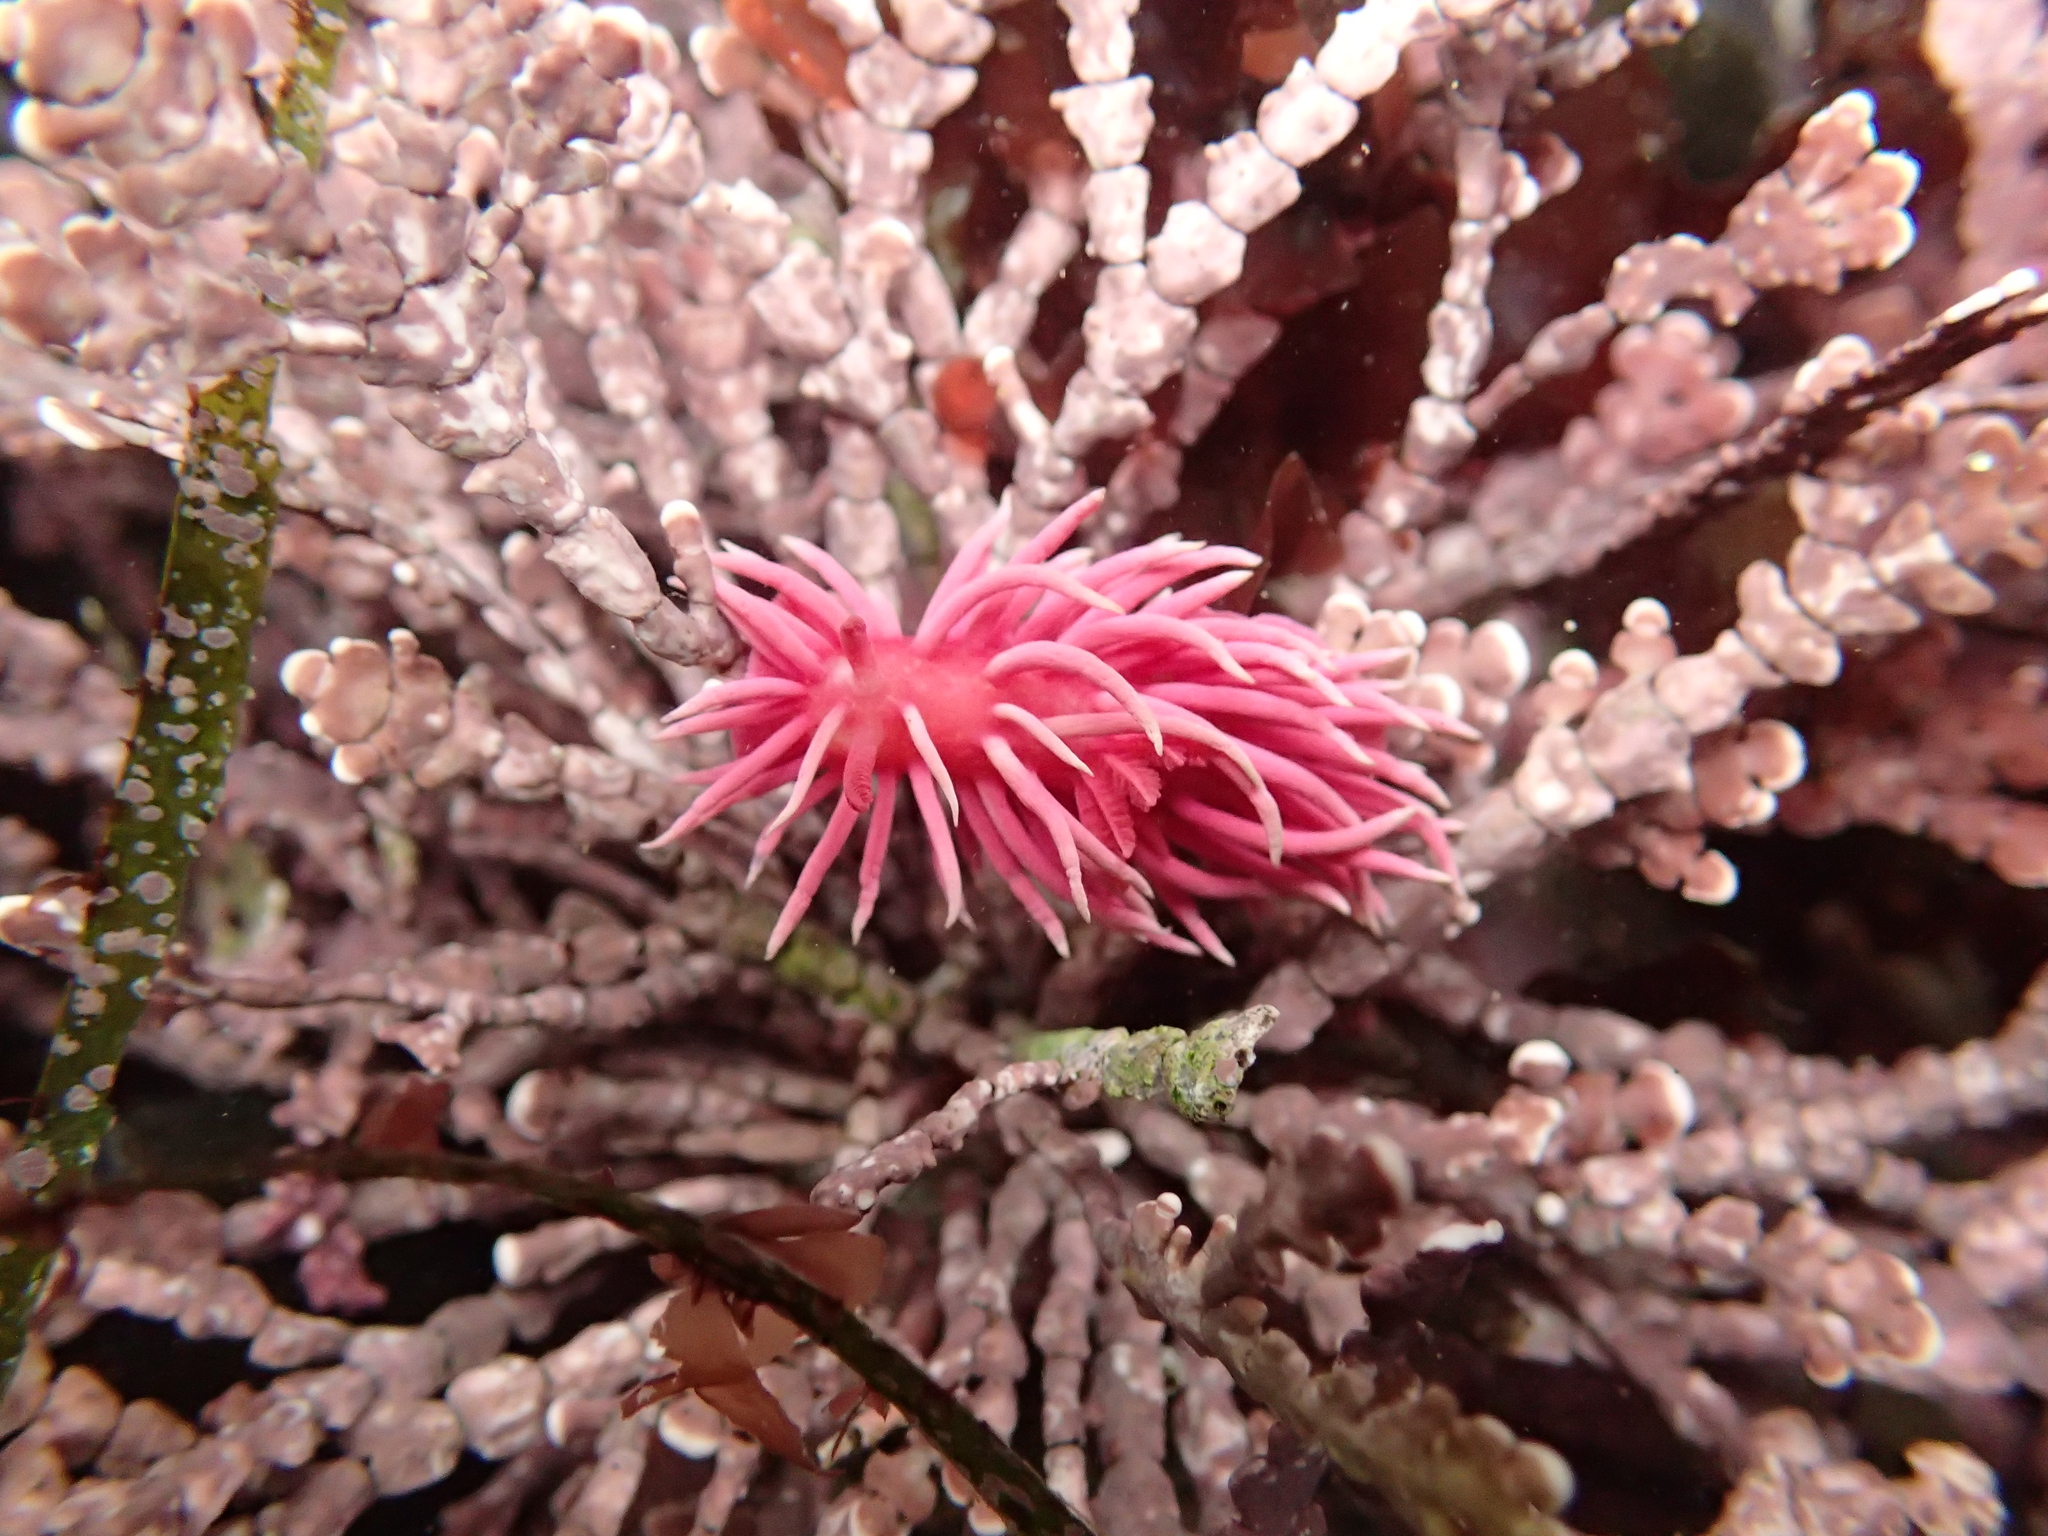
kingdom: Animalia
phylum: Mollusca
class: Gastropoda
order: Nudibranchia
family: Goniodorididae
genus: Okenia
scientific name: Okenia
